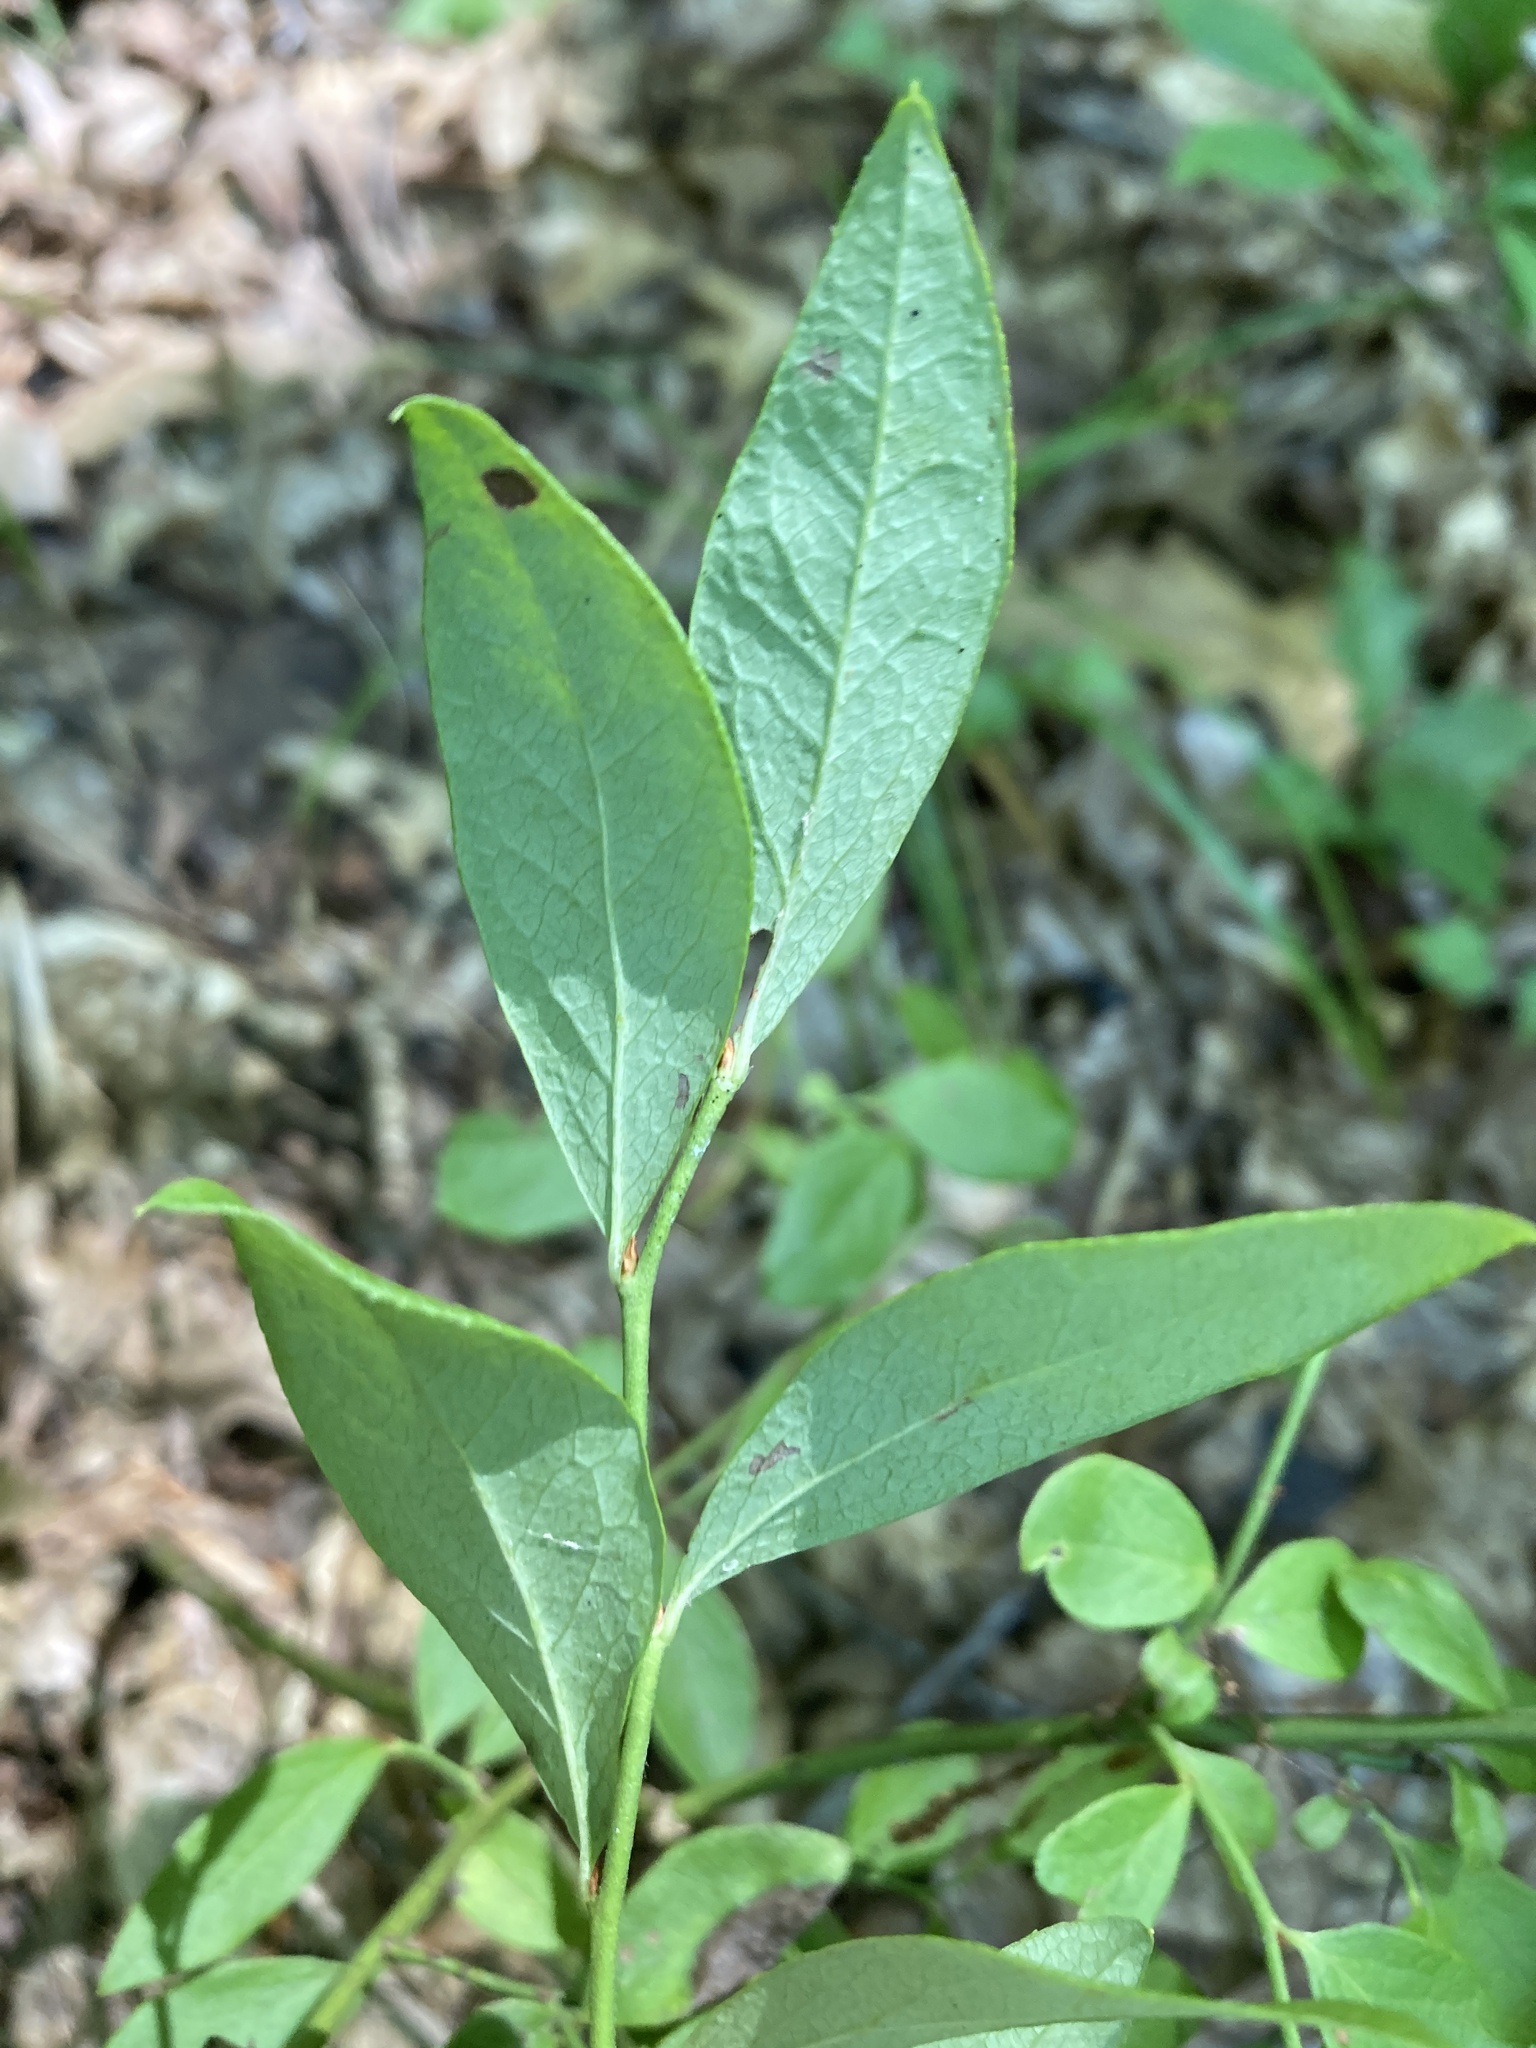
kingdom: Plantae
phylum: Tracheophyta
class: Magnoliopsida
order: Ericales
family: Ericaceae
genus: Vaccinium
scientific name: Vaccinium pallidum
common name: Blue ridge blueberry
